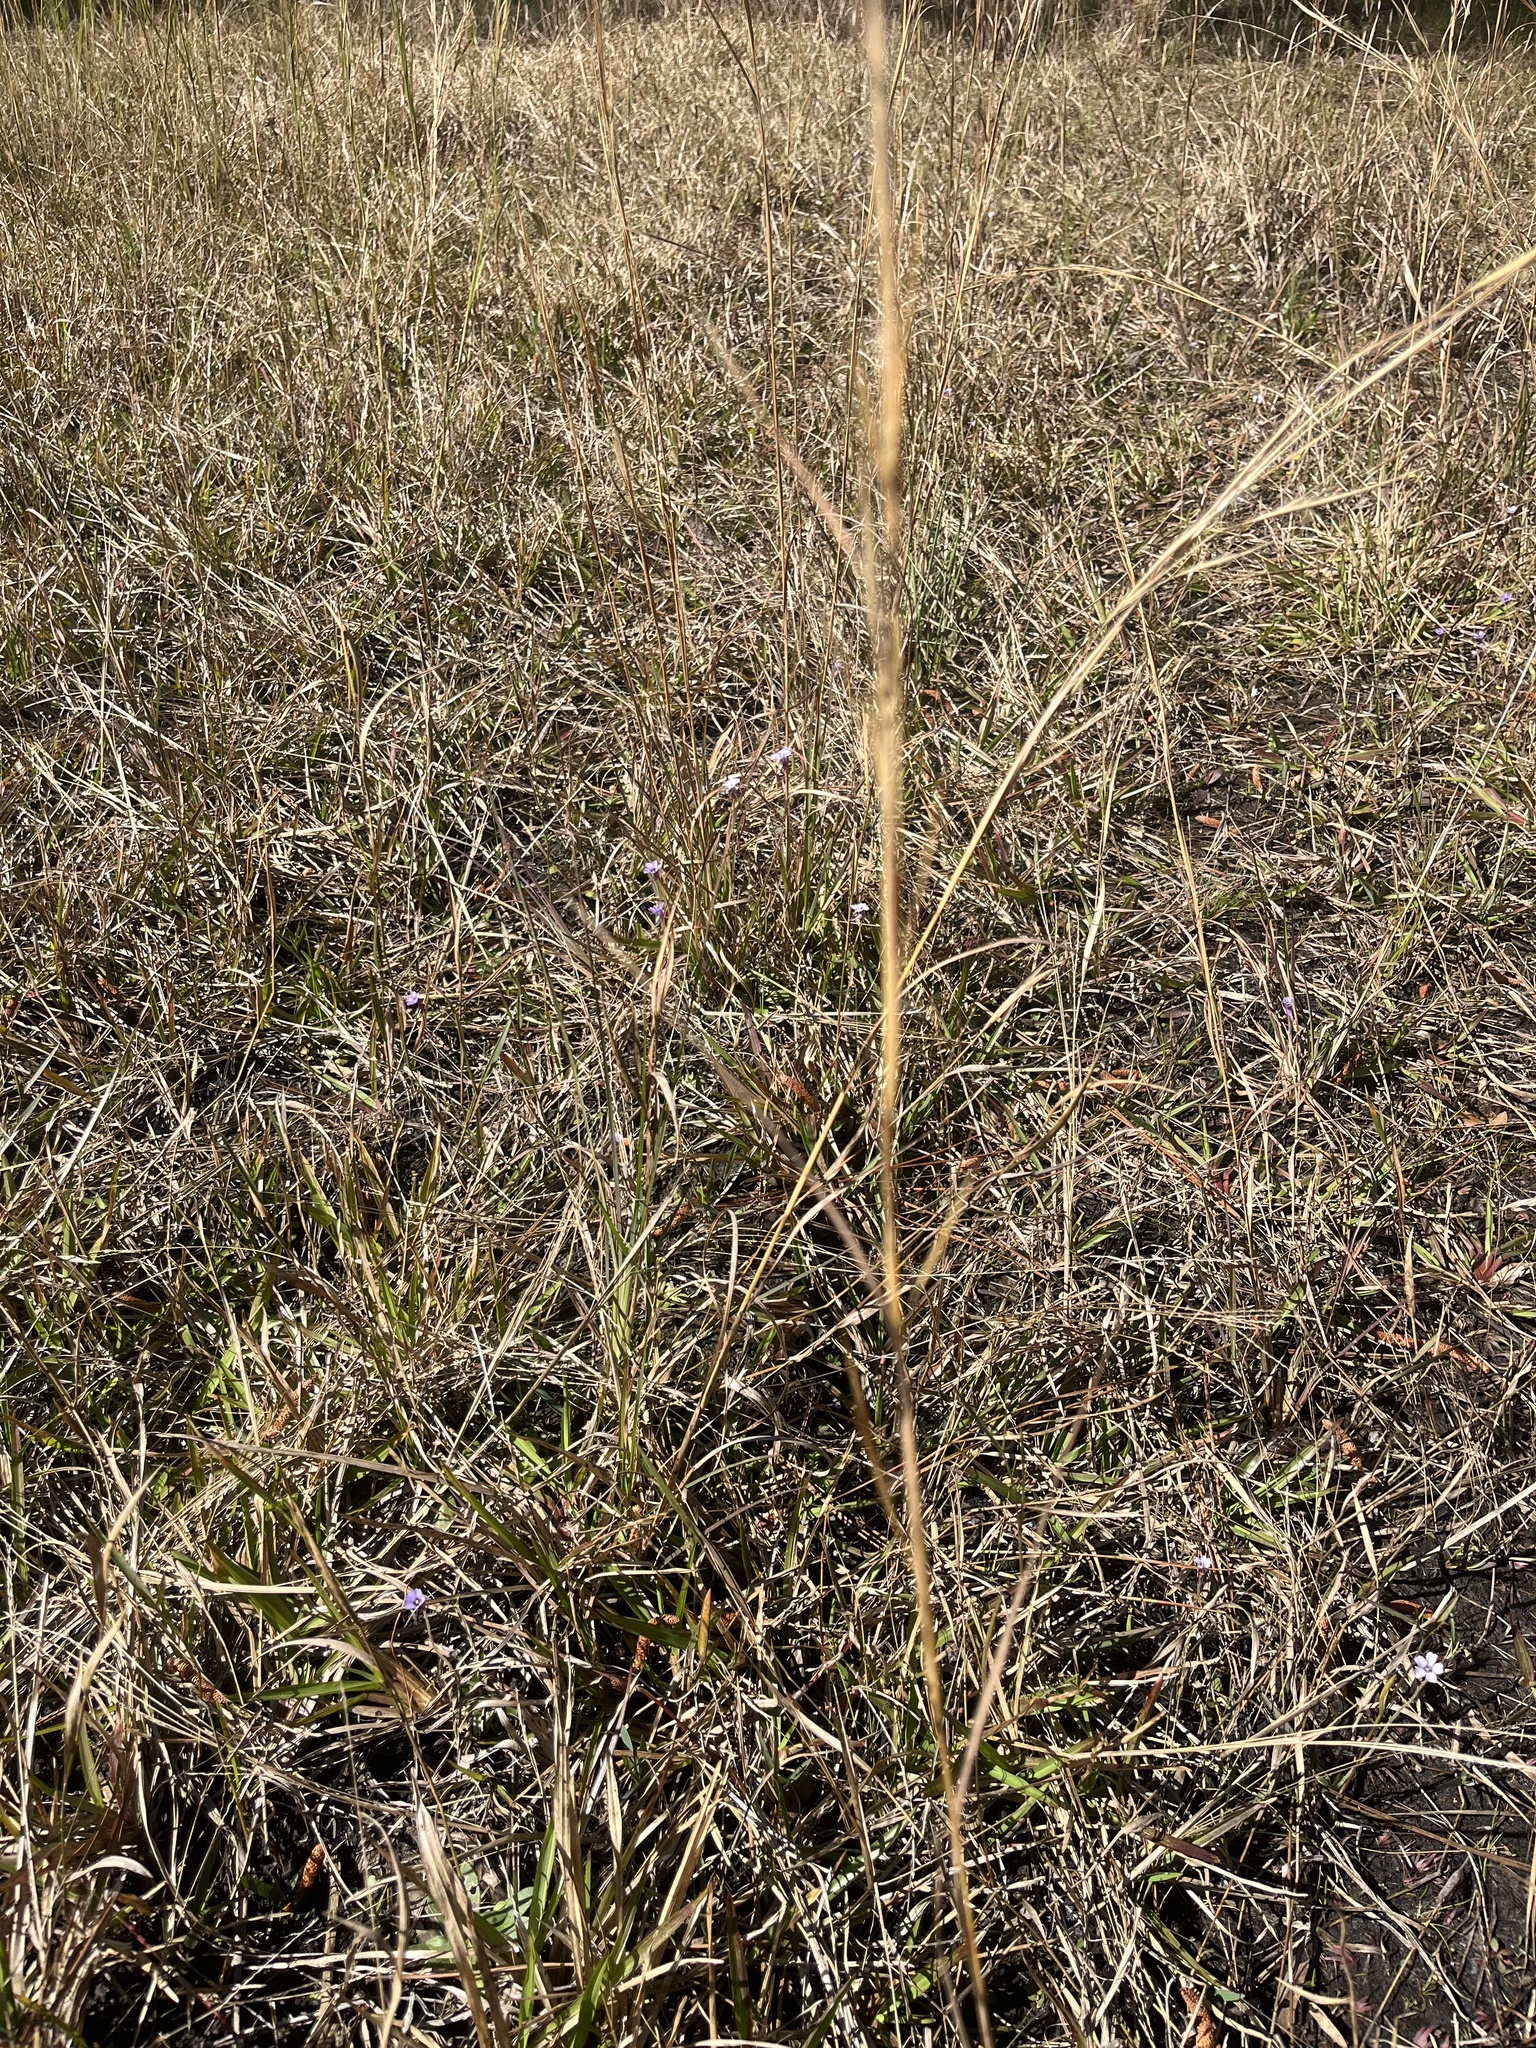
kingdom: Plantae
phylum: Tracheophyta
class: Magnoliopsida
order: Lamiales
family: Lentibulariaceae
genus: Pinguicula
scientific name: Pinguicula pumila
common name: Small butterwort
